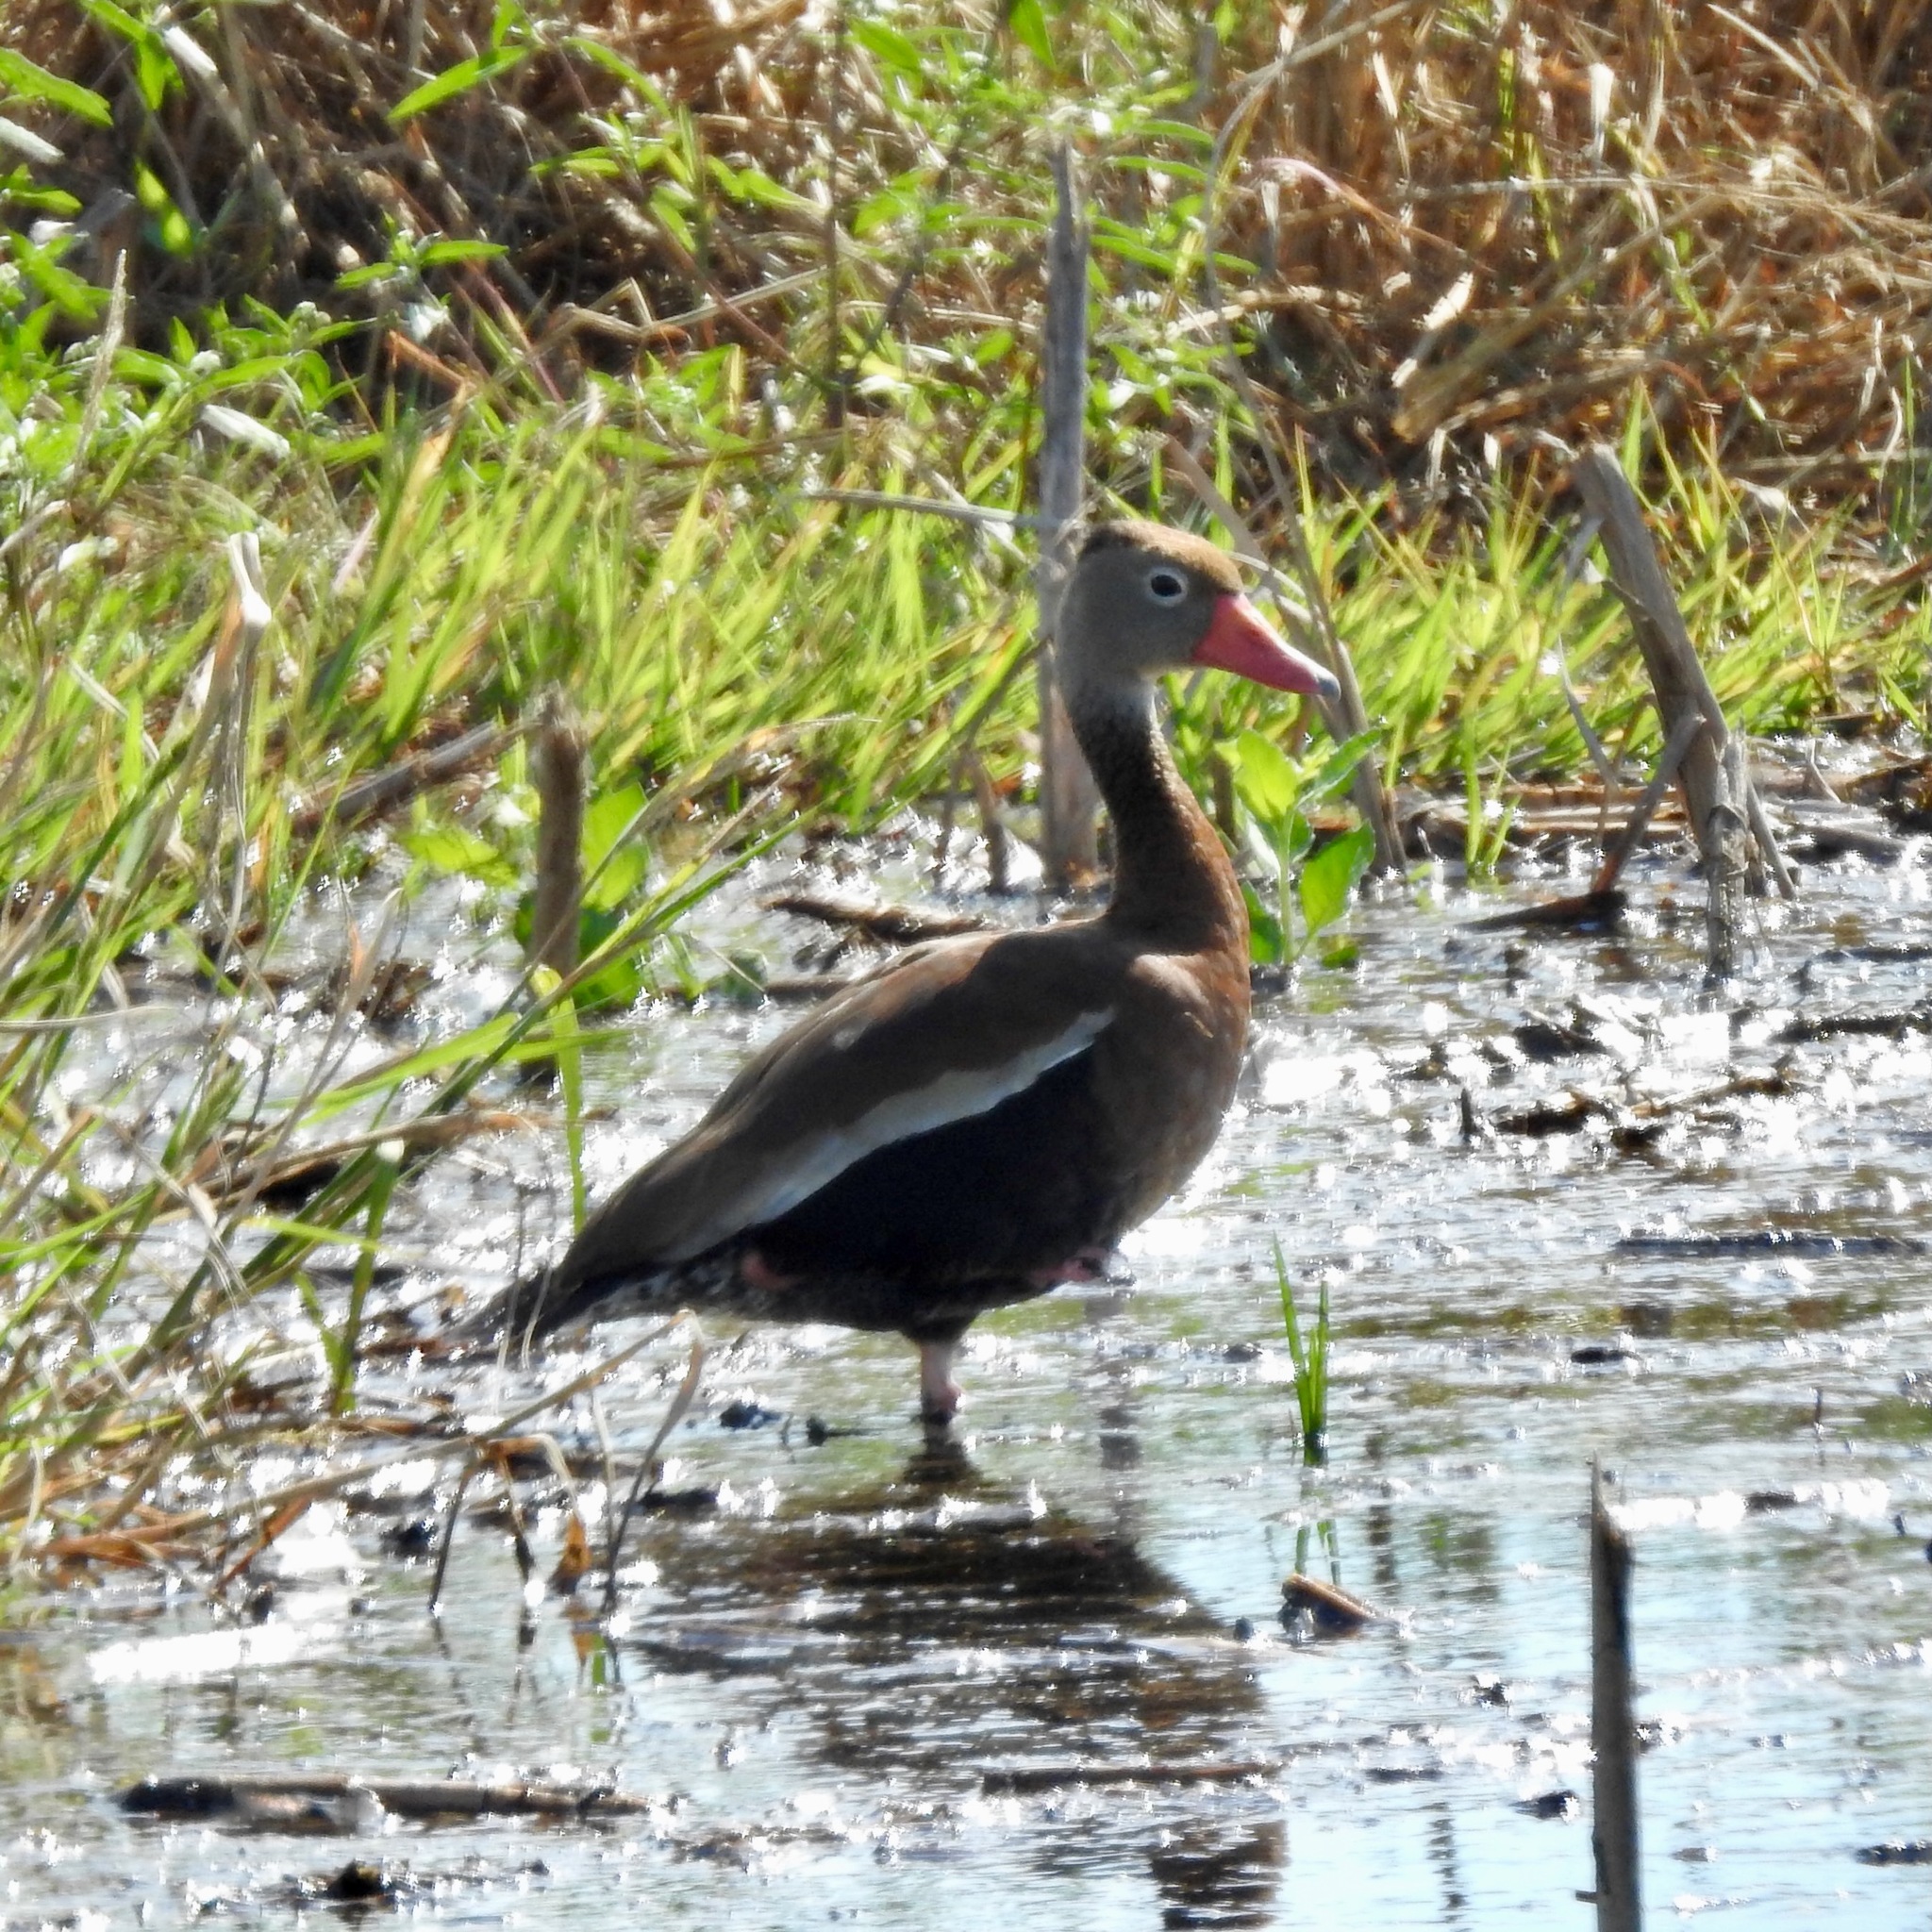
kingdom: Animalia
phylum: Chordata
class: Aves
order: Anseriformes
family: Anatidae
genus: Dendrocygna
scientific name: Dendrocygna autumnalis
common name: Black-bellied whistling duck
